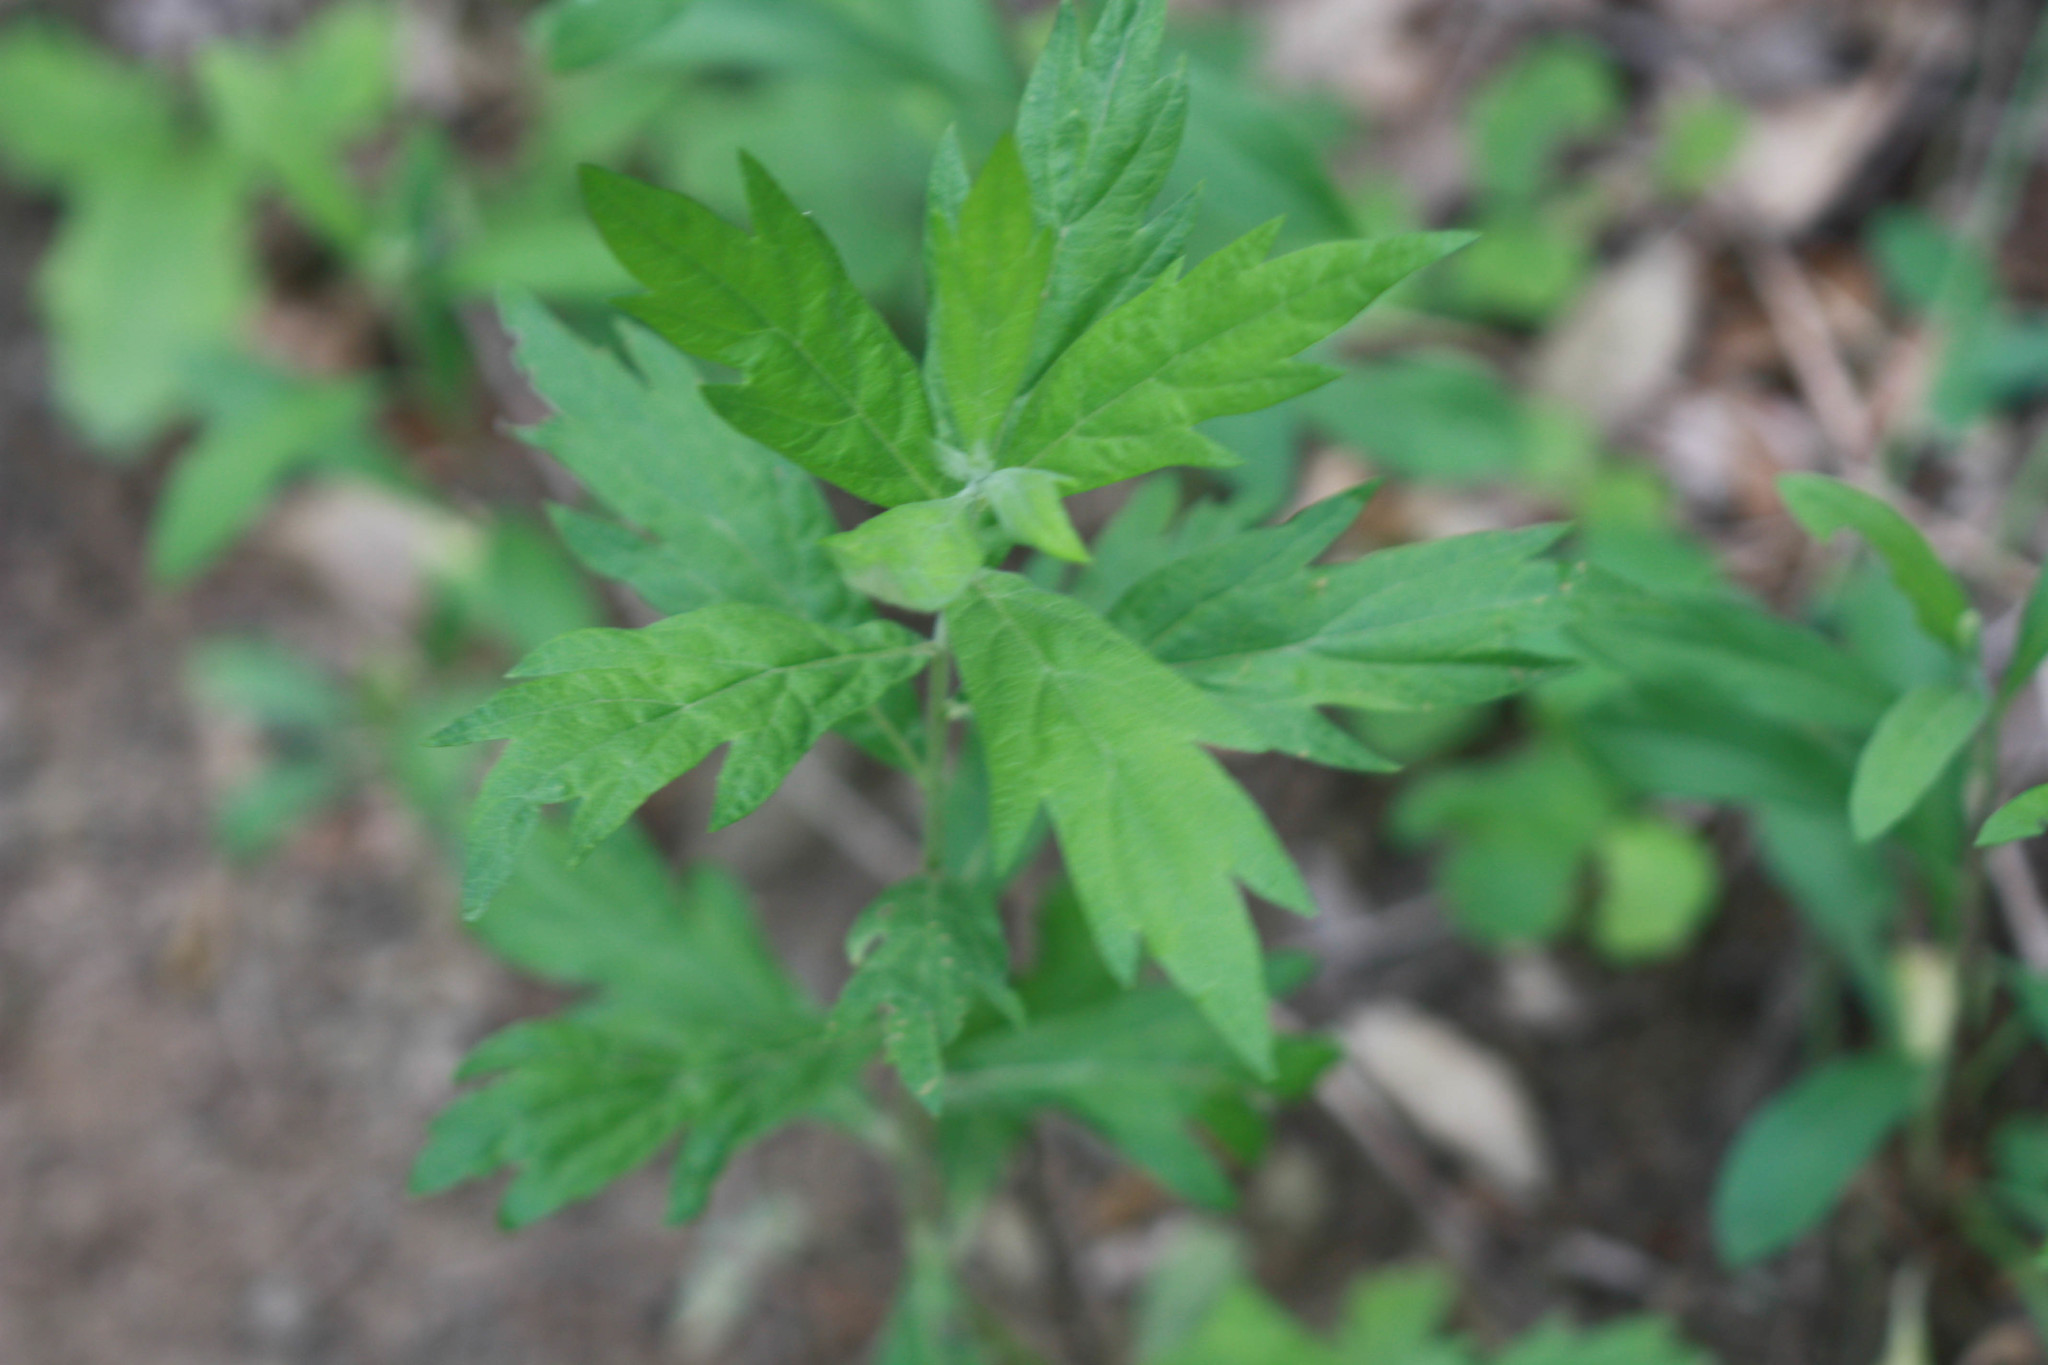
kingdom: Plantae
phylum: Tracheophyta
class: Magnoliopsida
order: Asterales
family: Asteraceae
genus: Artemisia
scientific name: Artemisia douglasiana
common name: Northwest mugwort
